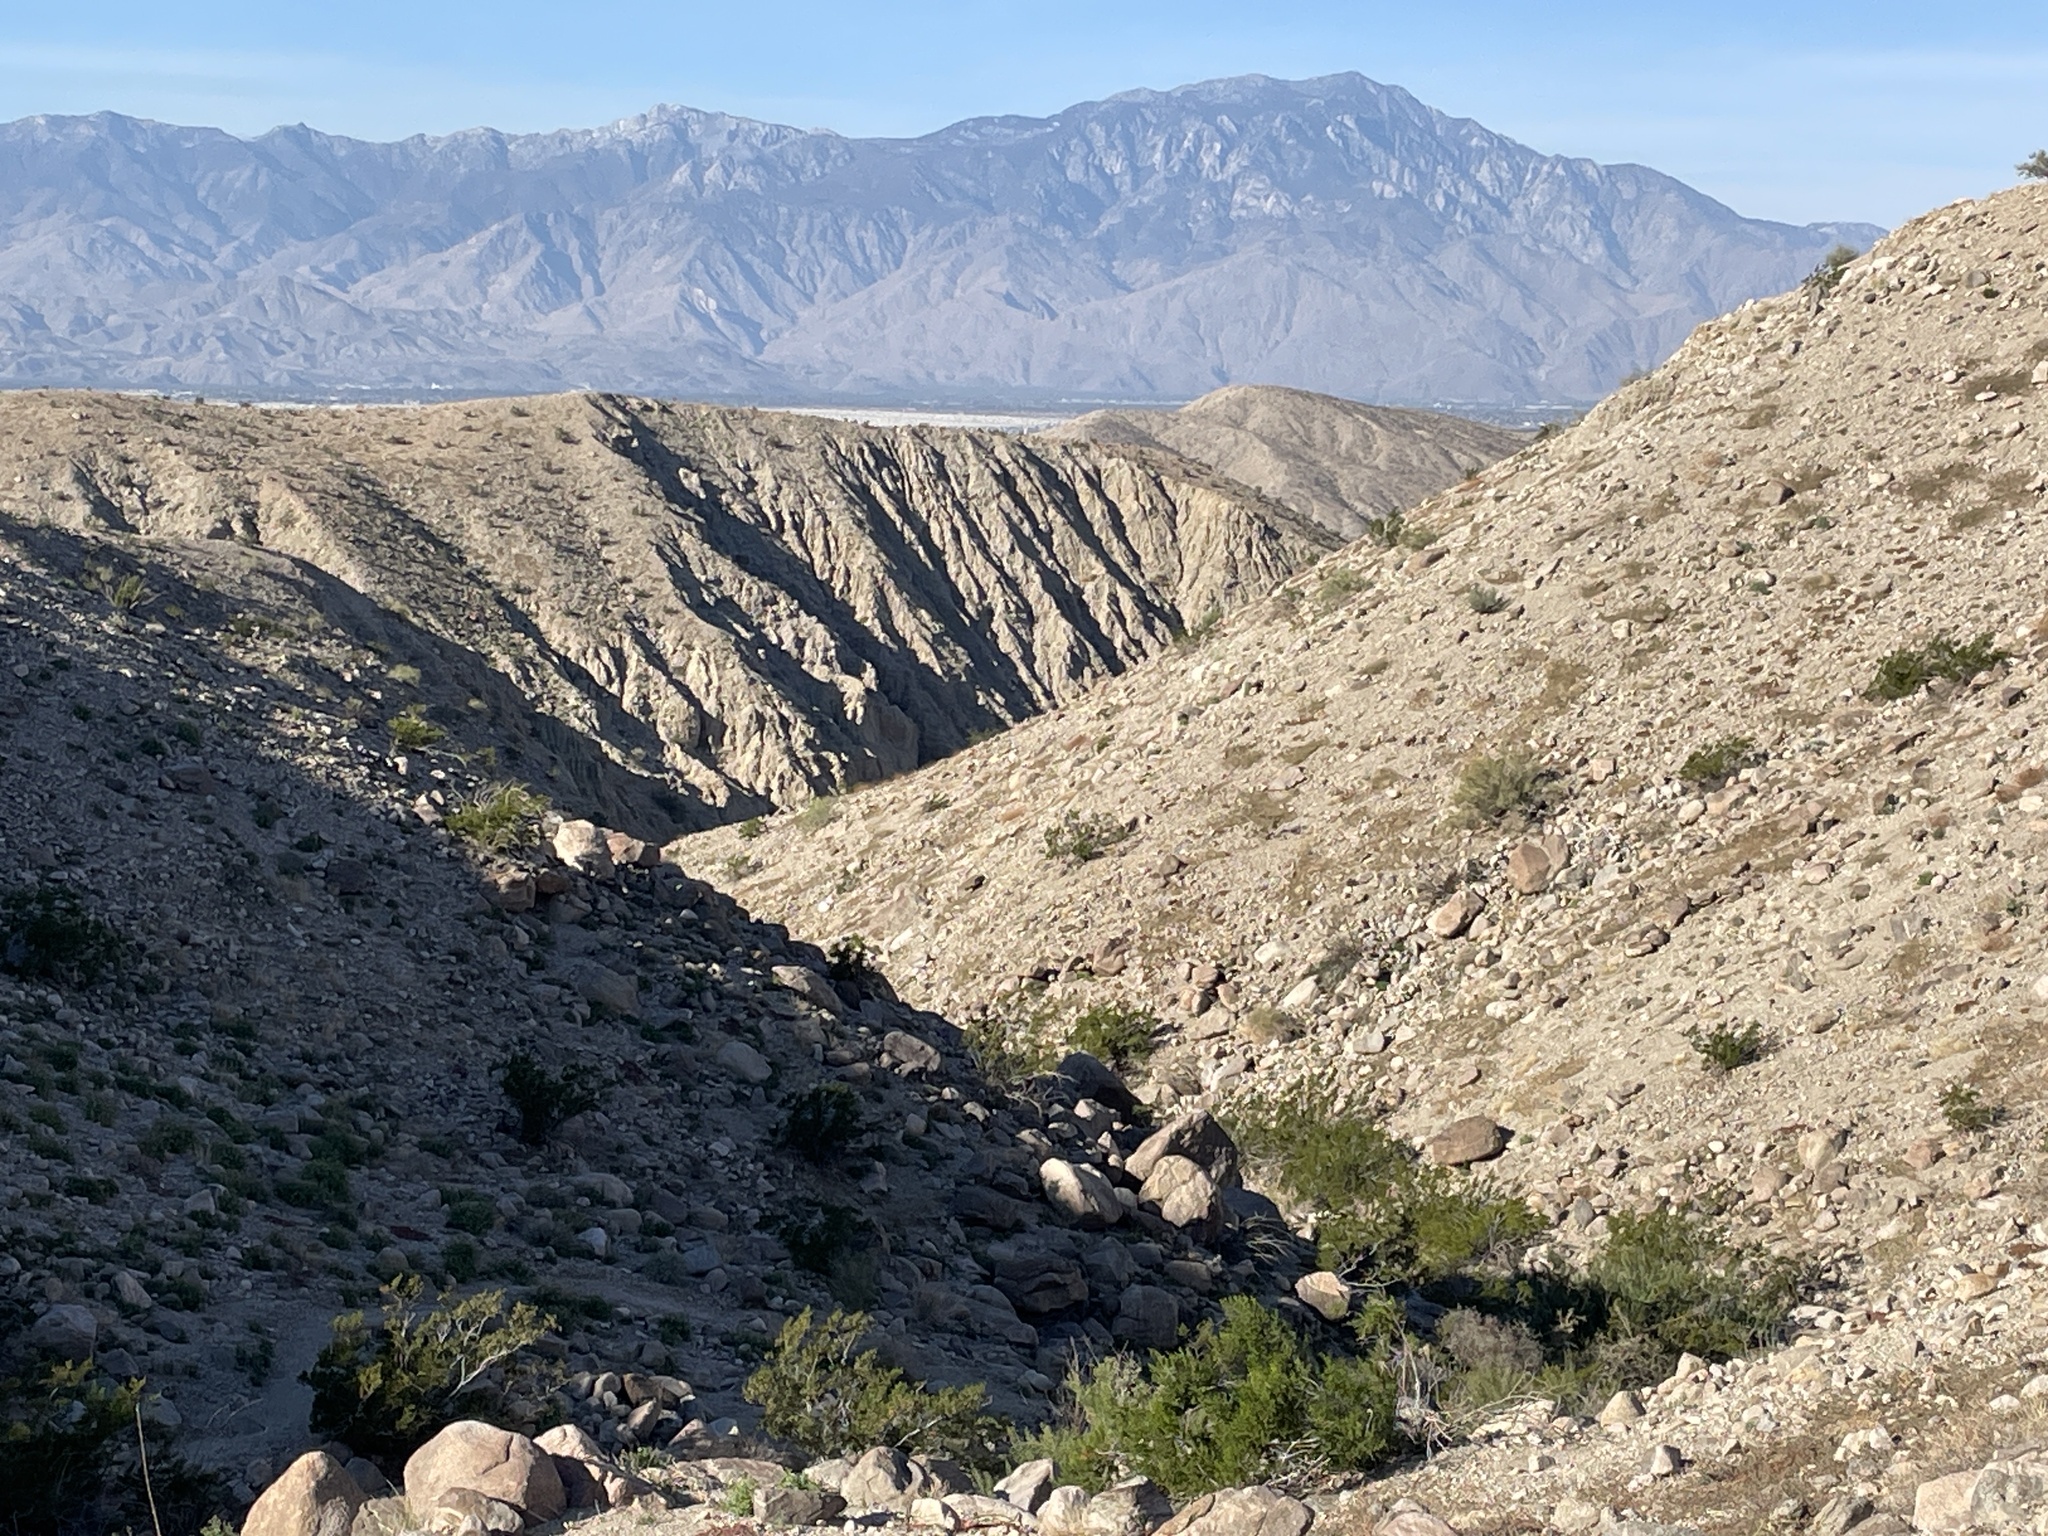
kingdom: Plantae
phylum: Tracheophyta
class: Magnoliopsida
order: Caryophyllales
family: Cactaceae
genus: Ferocactus
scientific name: Ferocactus cylindraceus
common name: California barrel cactus
